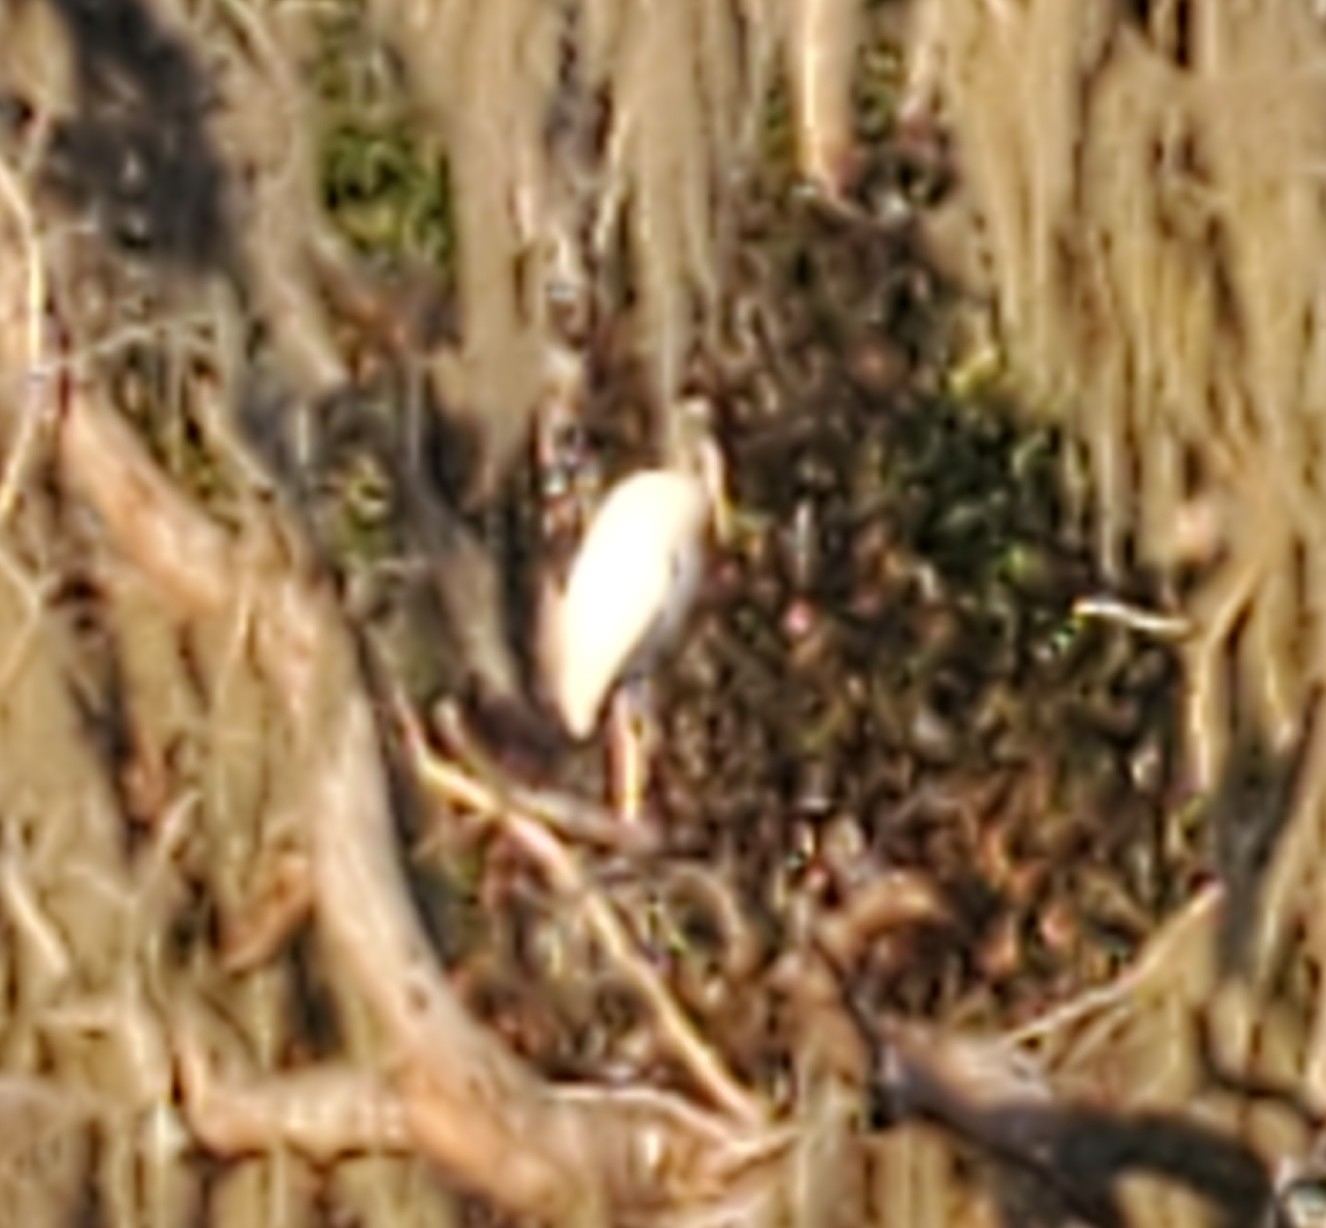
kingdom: Animalia
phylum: Chordata
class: Aves
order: Ciconiiformes
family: Ciconiidae
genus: Mycteria
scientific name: Mycteria americana
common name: Wood stork
